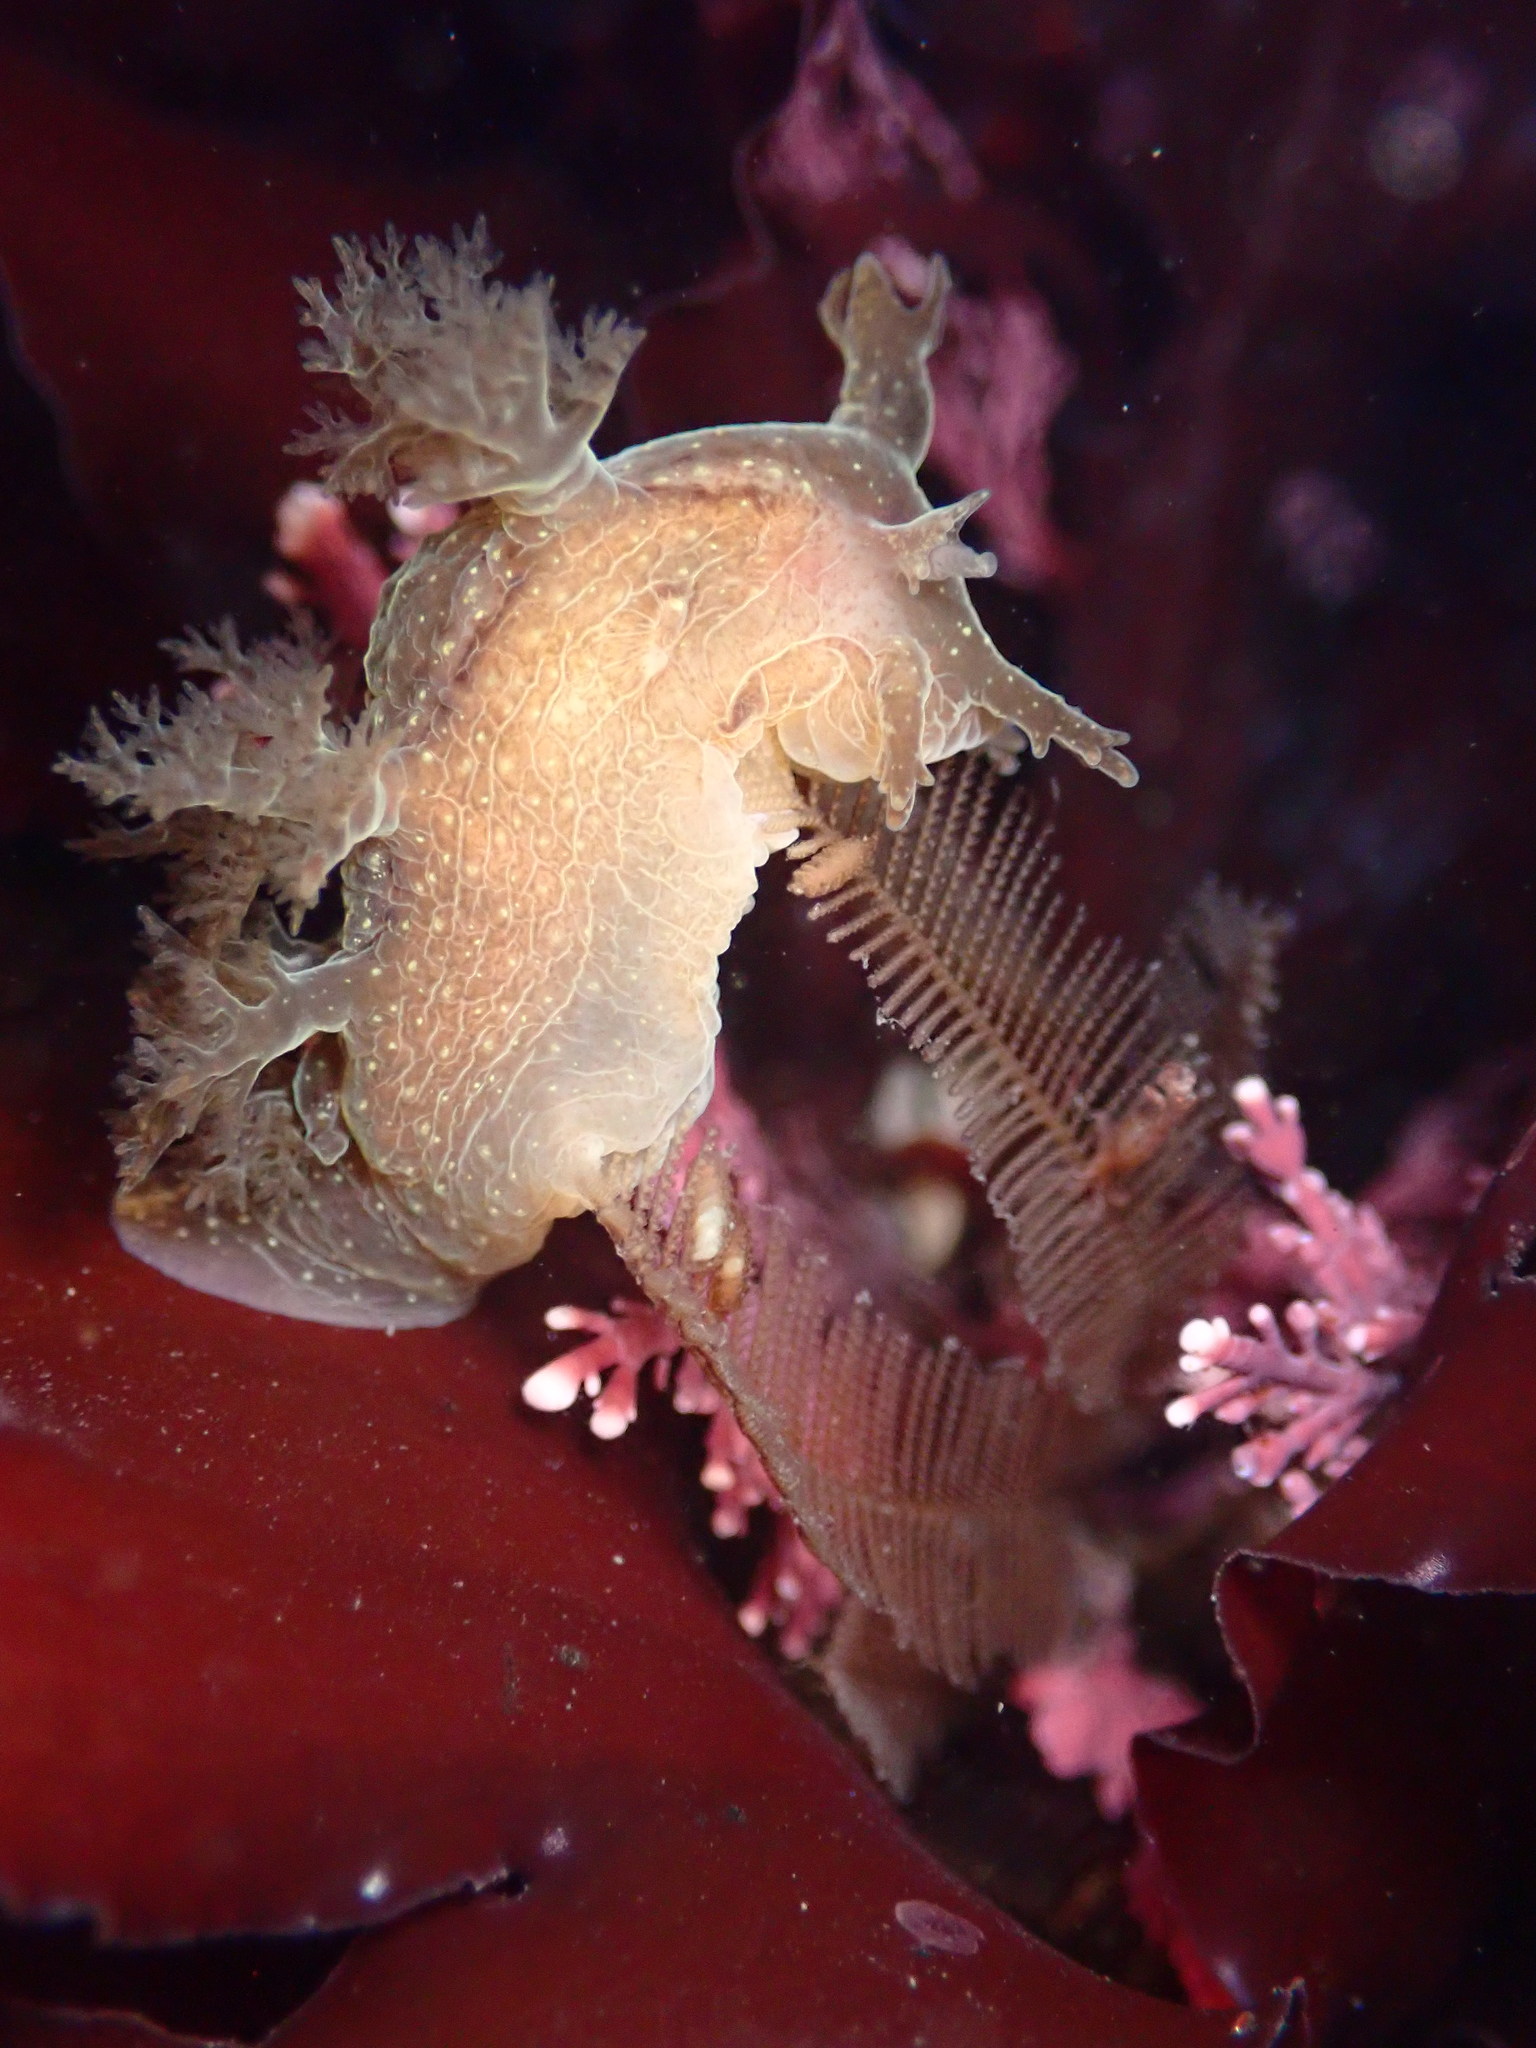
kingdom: Animalia
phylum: Mollusca
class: Gastropoda
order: Nudibranchia
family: Dendronotidae
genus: Dendronotus
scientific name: Dendronotus subramosus
